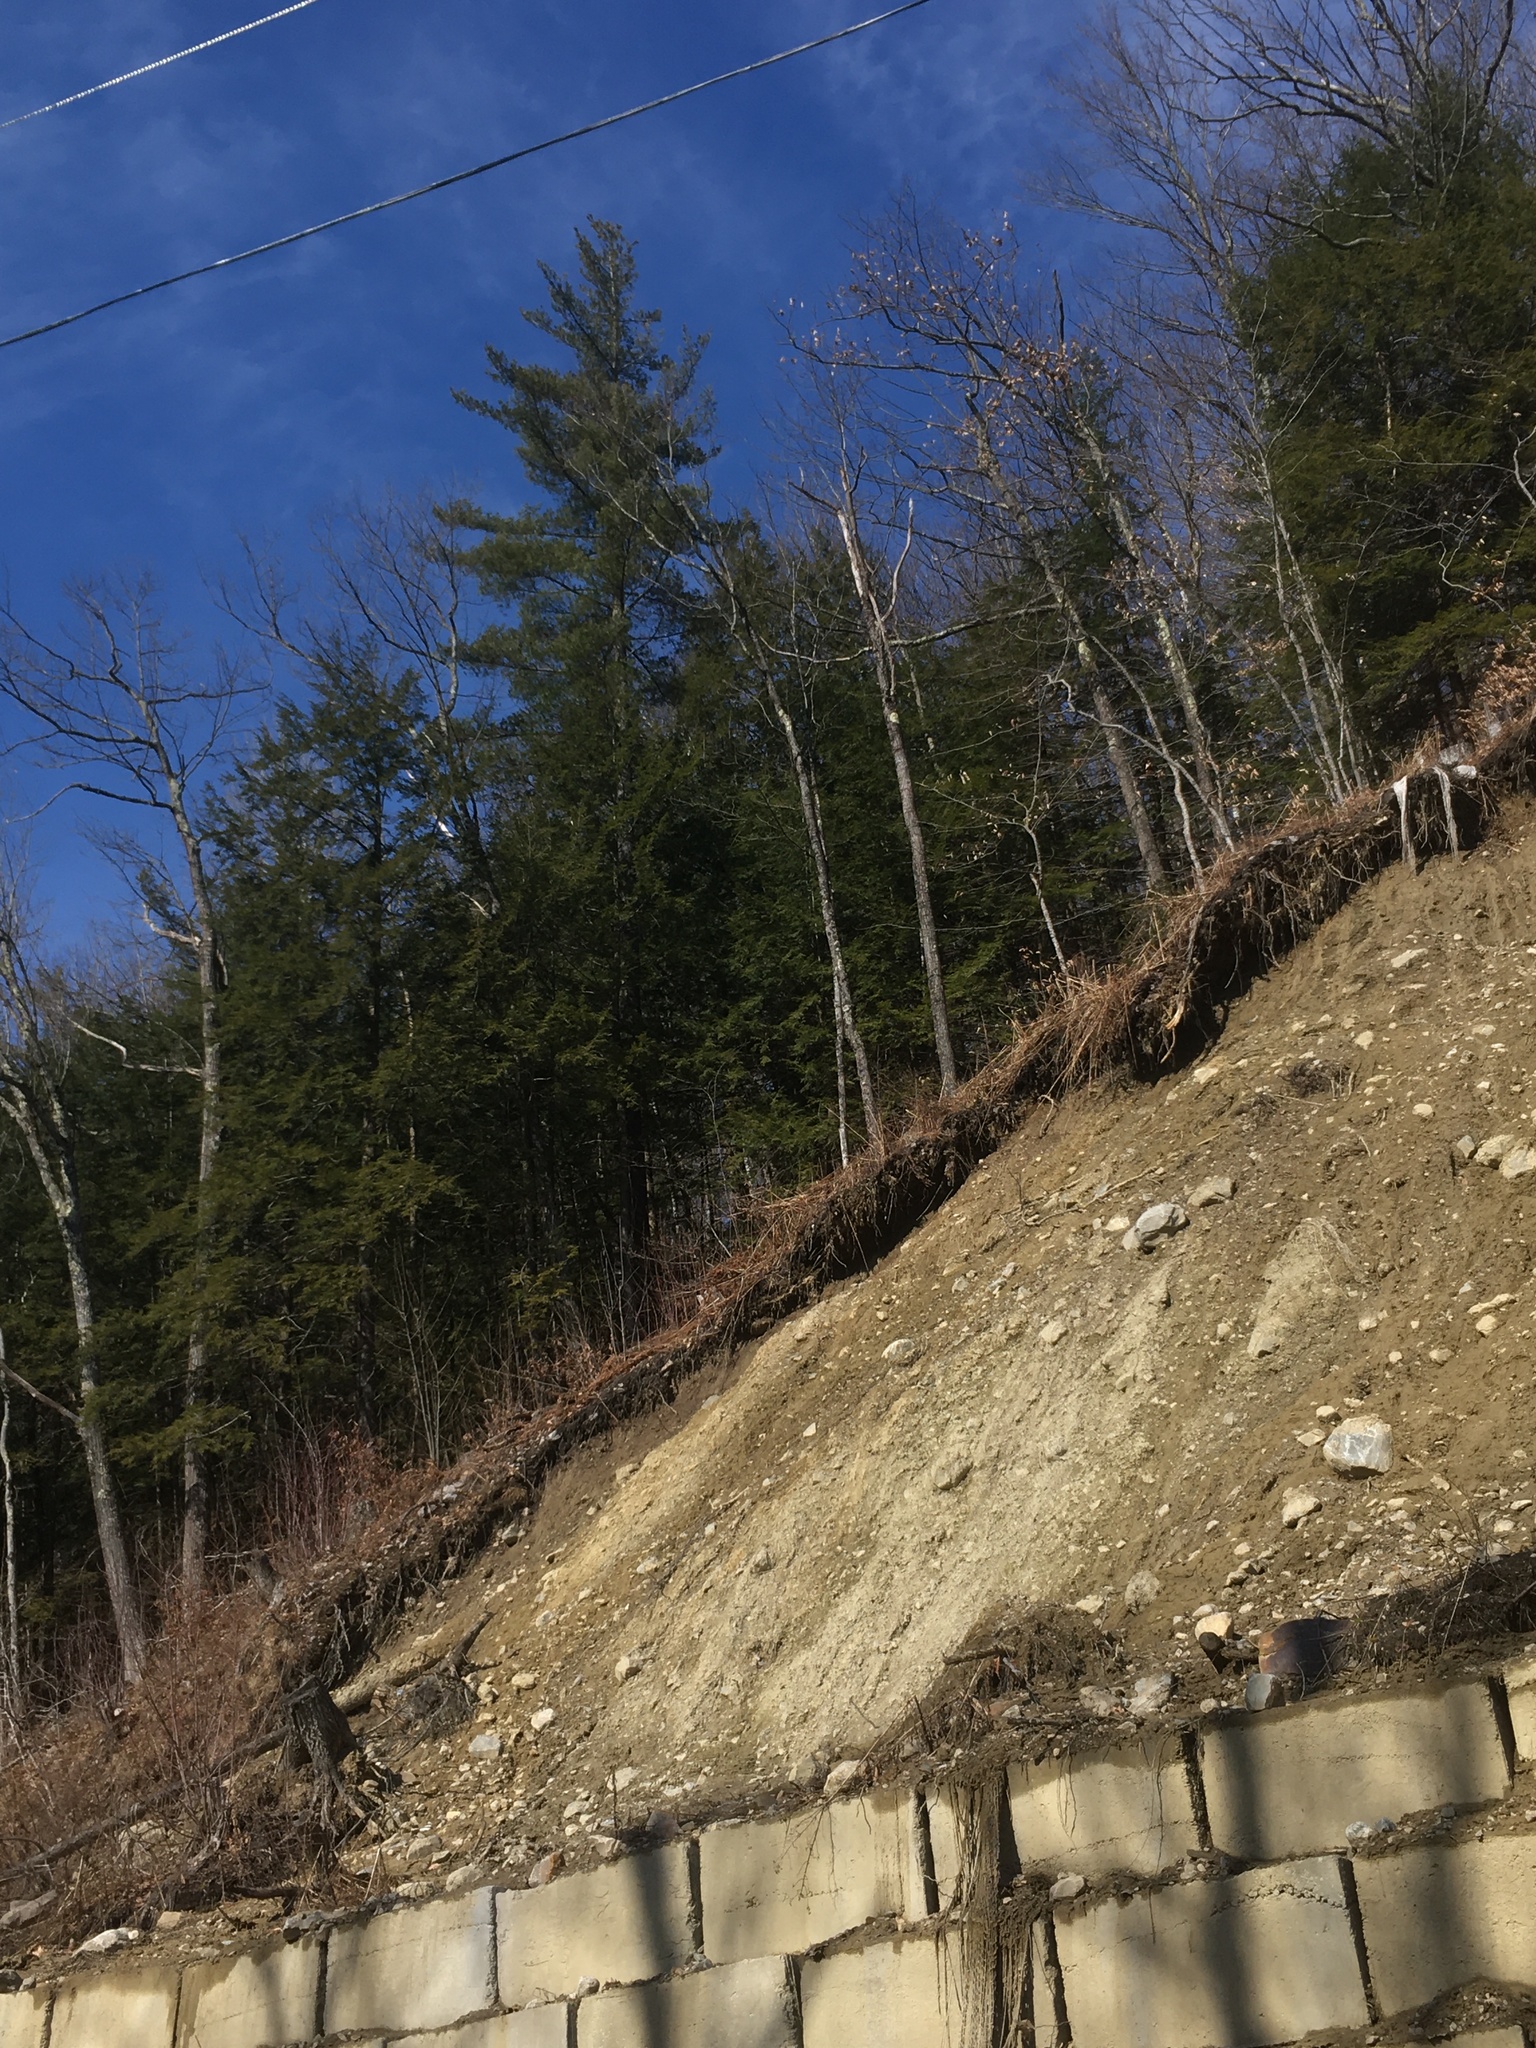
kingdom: Plantae
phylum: Tracheophyta
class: Pinopsida
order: Pinales
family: Pinaceae
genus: Pinus
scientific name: Pinus strobus
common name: Weymouth pine
